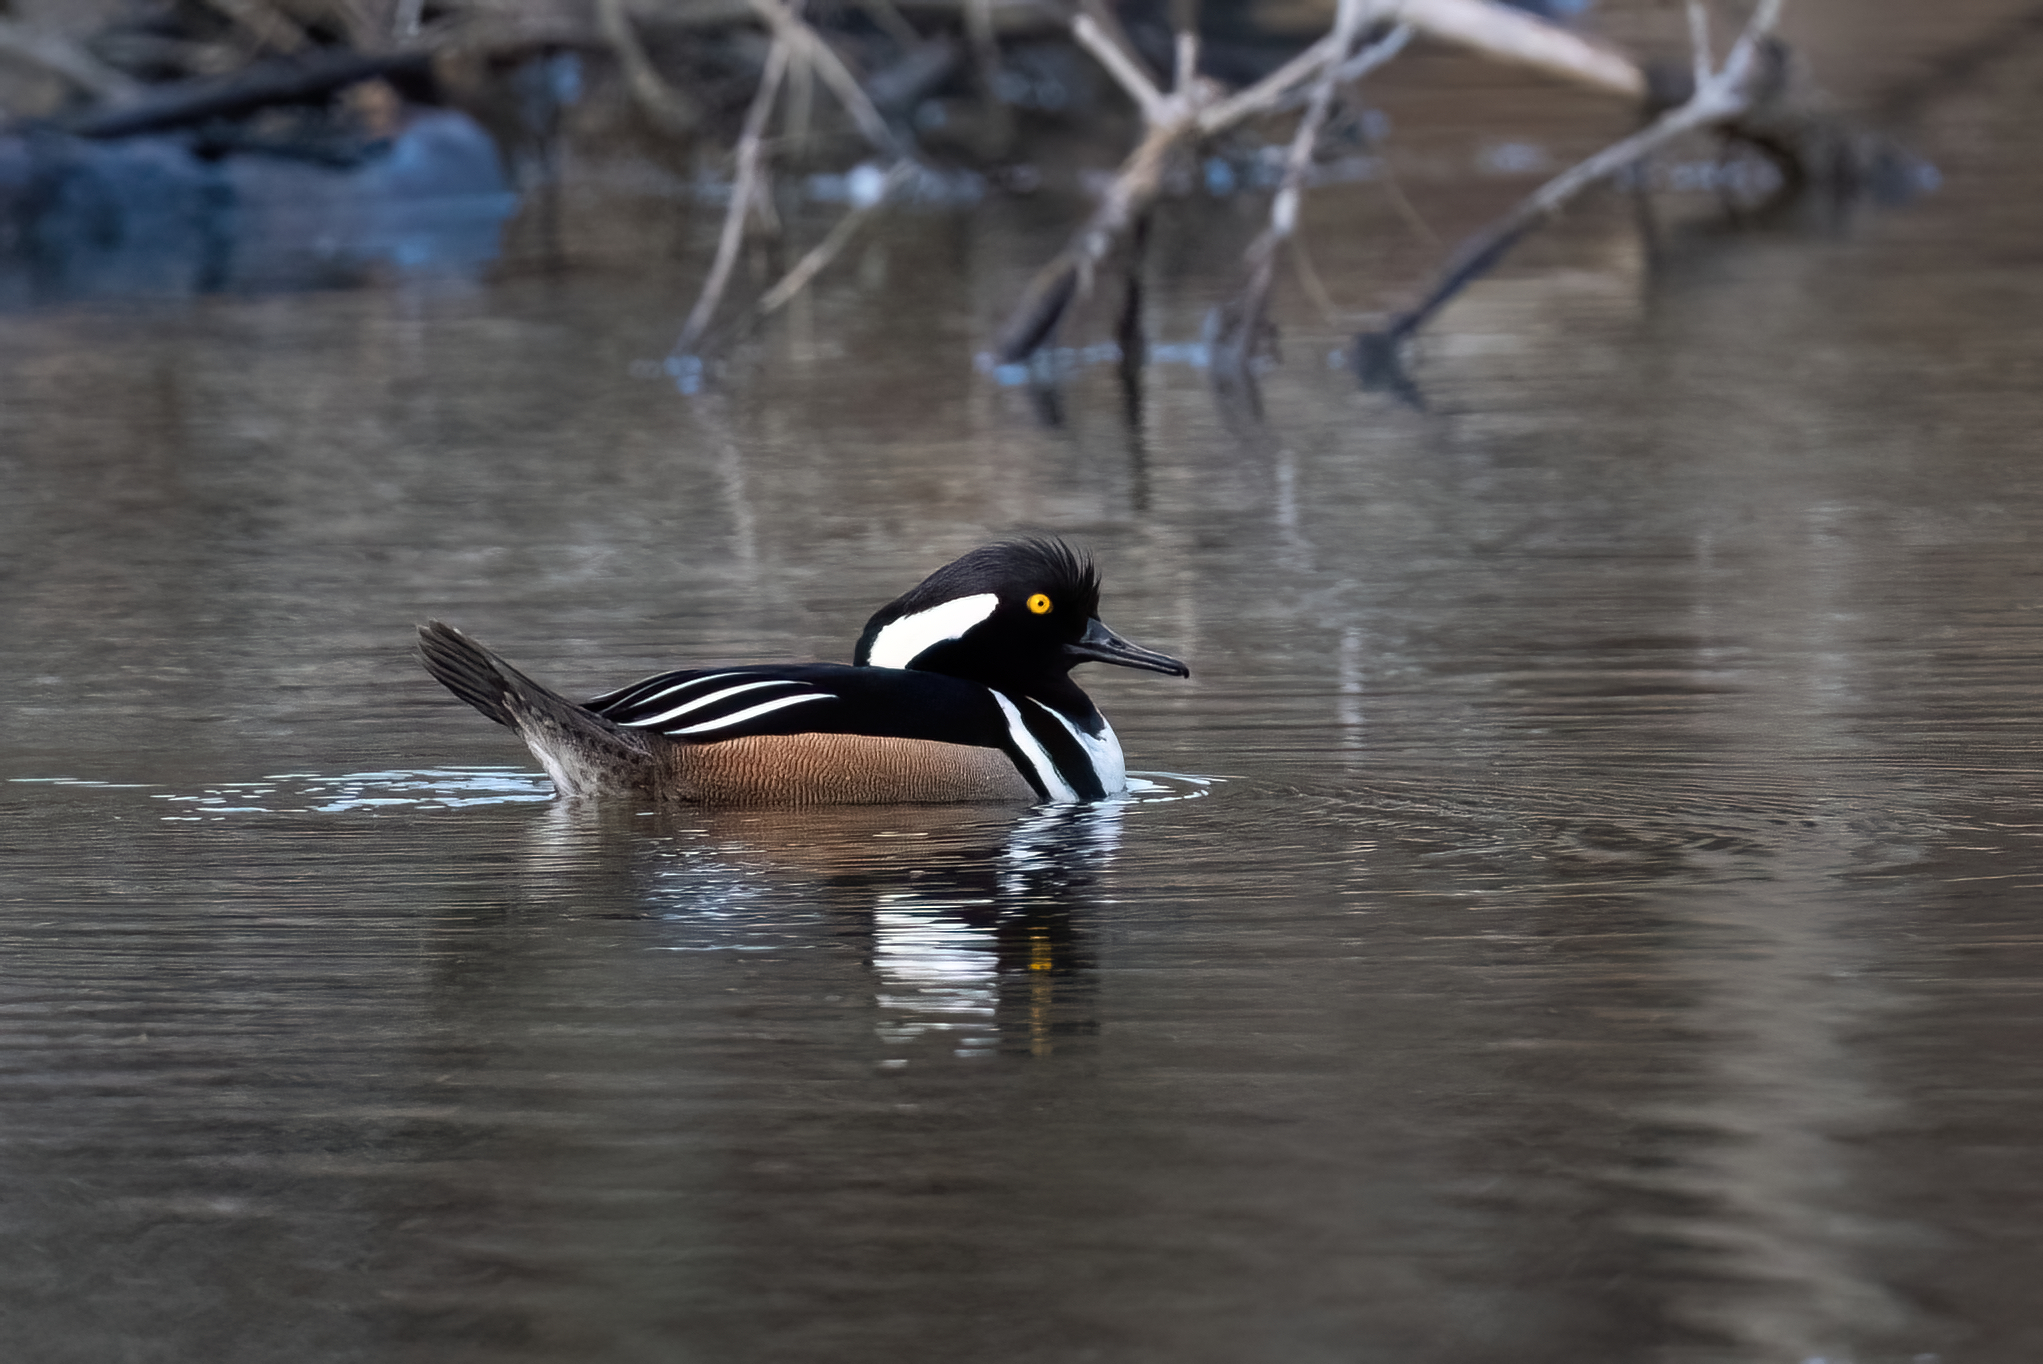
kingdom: Animalia
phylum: Chordata
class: Aves
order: Anseriformes
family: Anatidae
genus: Lophodytes
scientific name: Lophodytes cucullatus
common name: Hooded merganser
